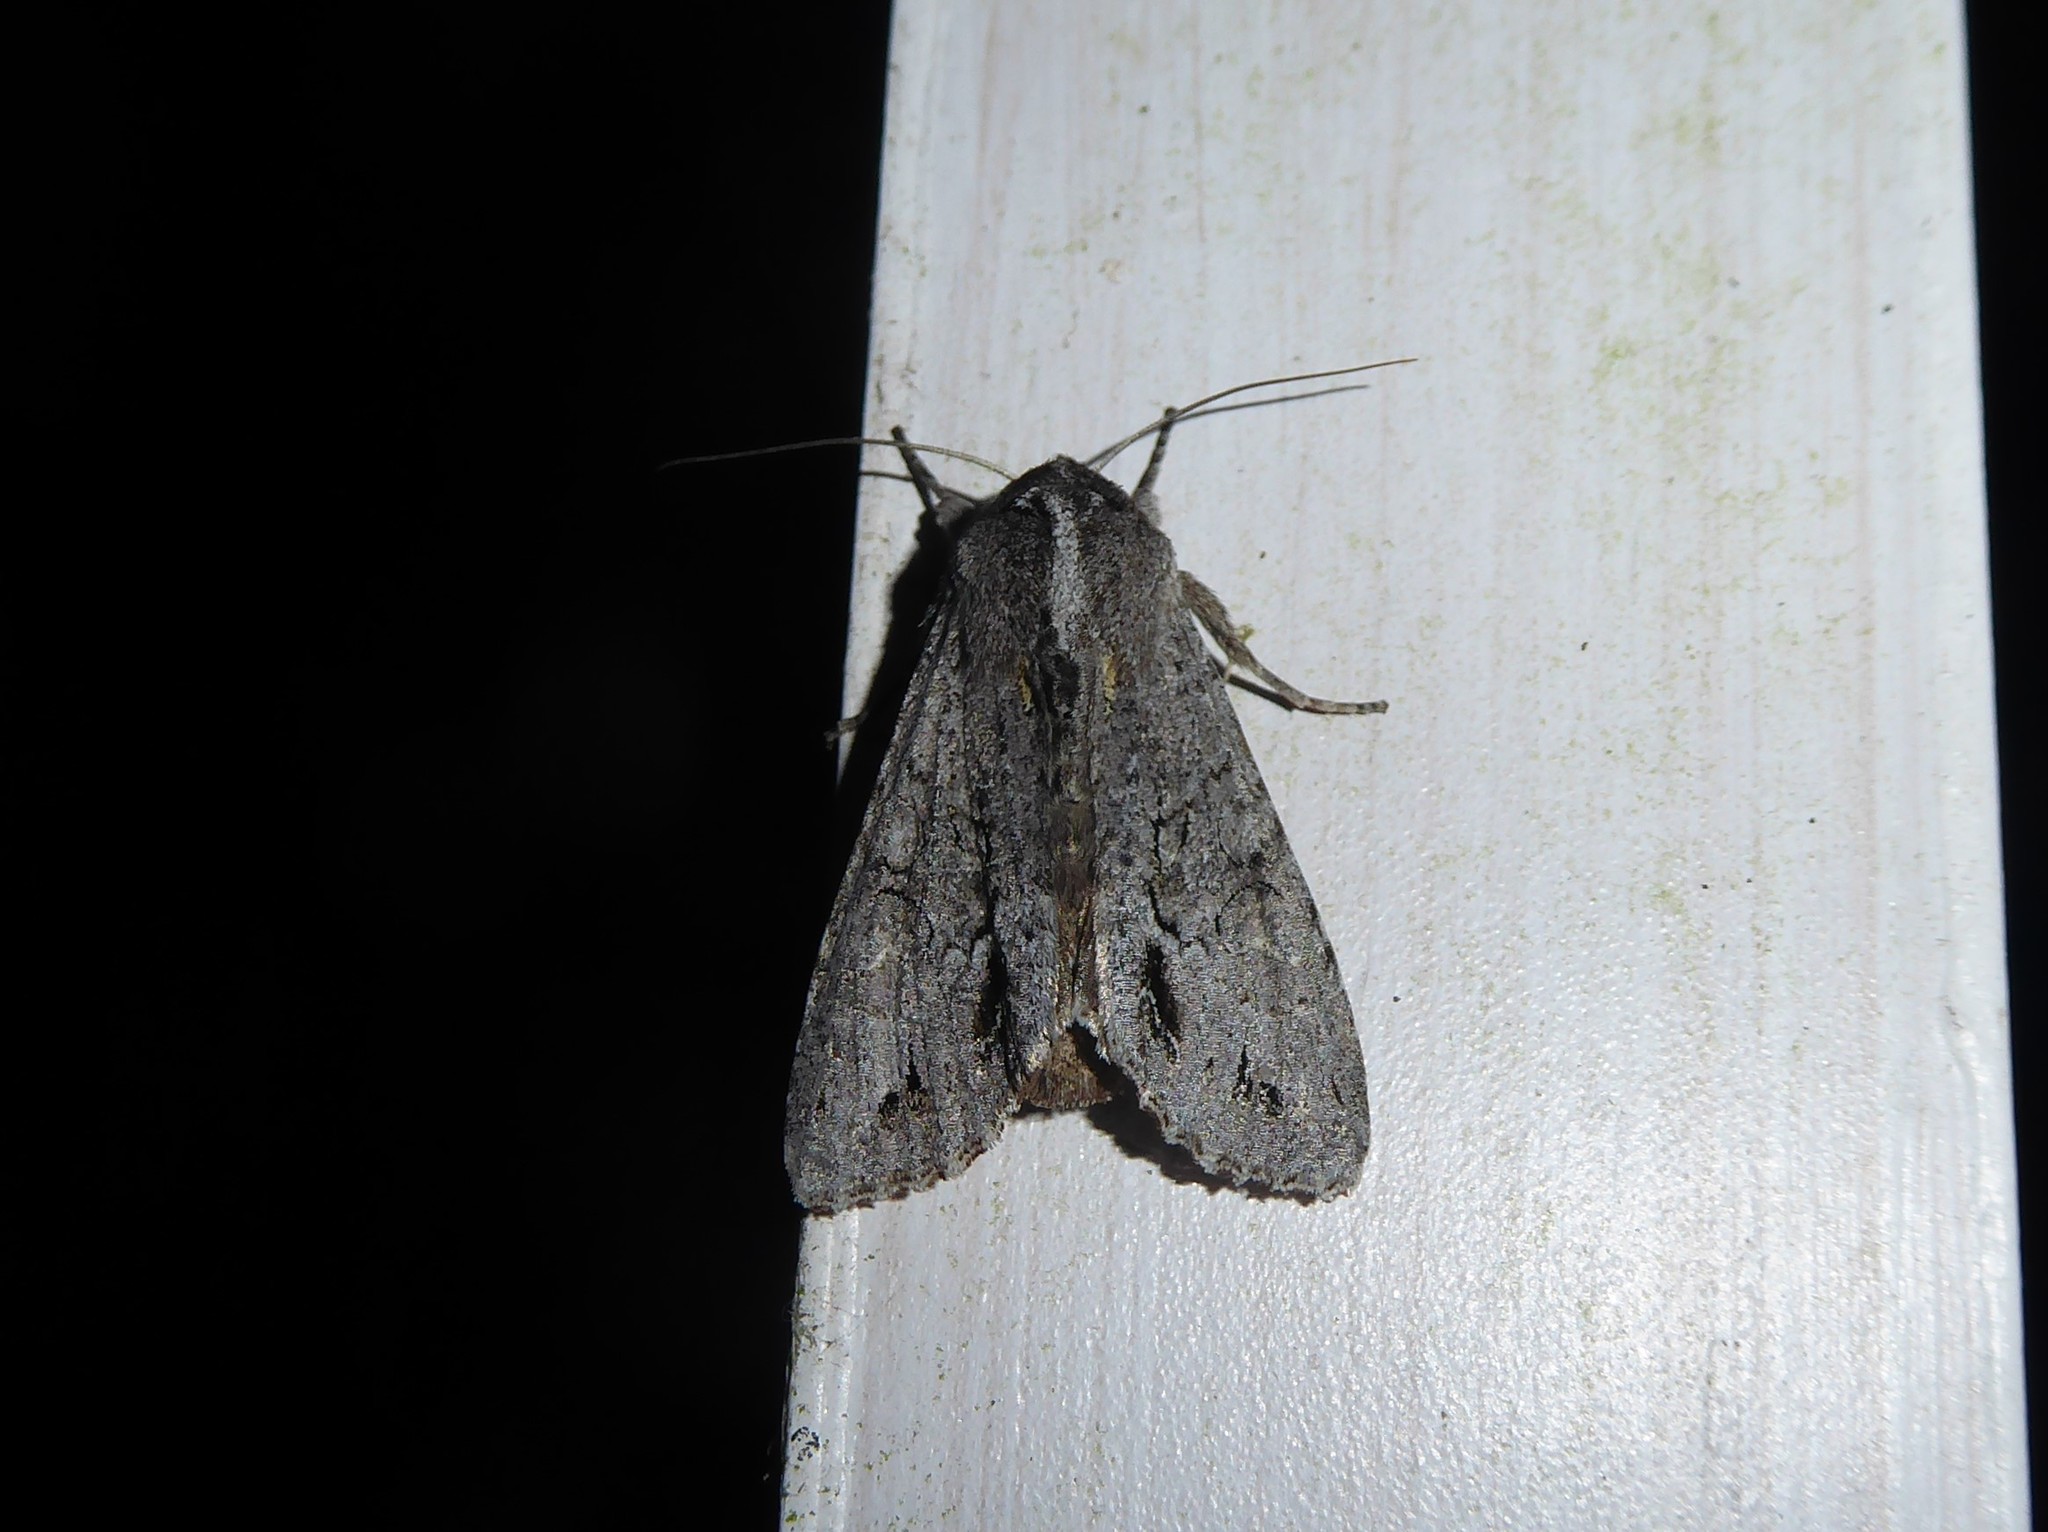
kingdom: Animalia
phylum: Arthropoda
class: Insecta
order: Lepidoptera
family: Noctuidae
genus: Ichneutica
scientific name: Ichneutica
